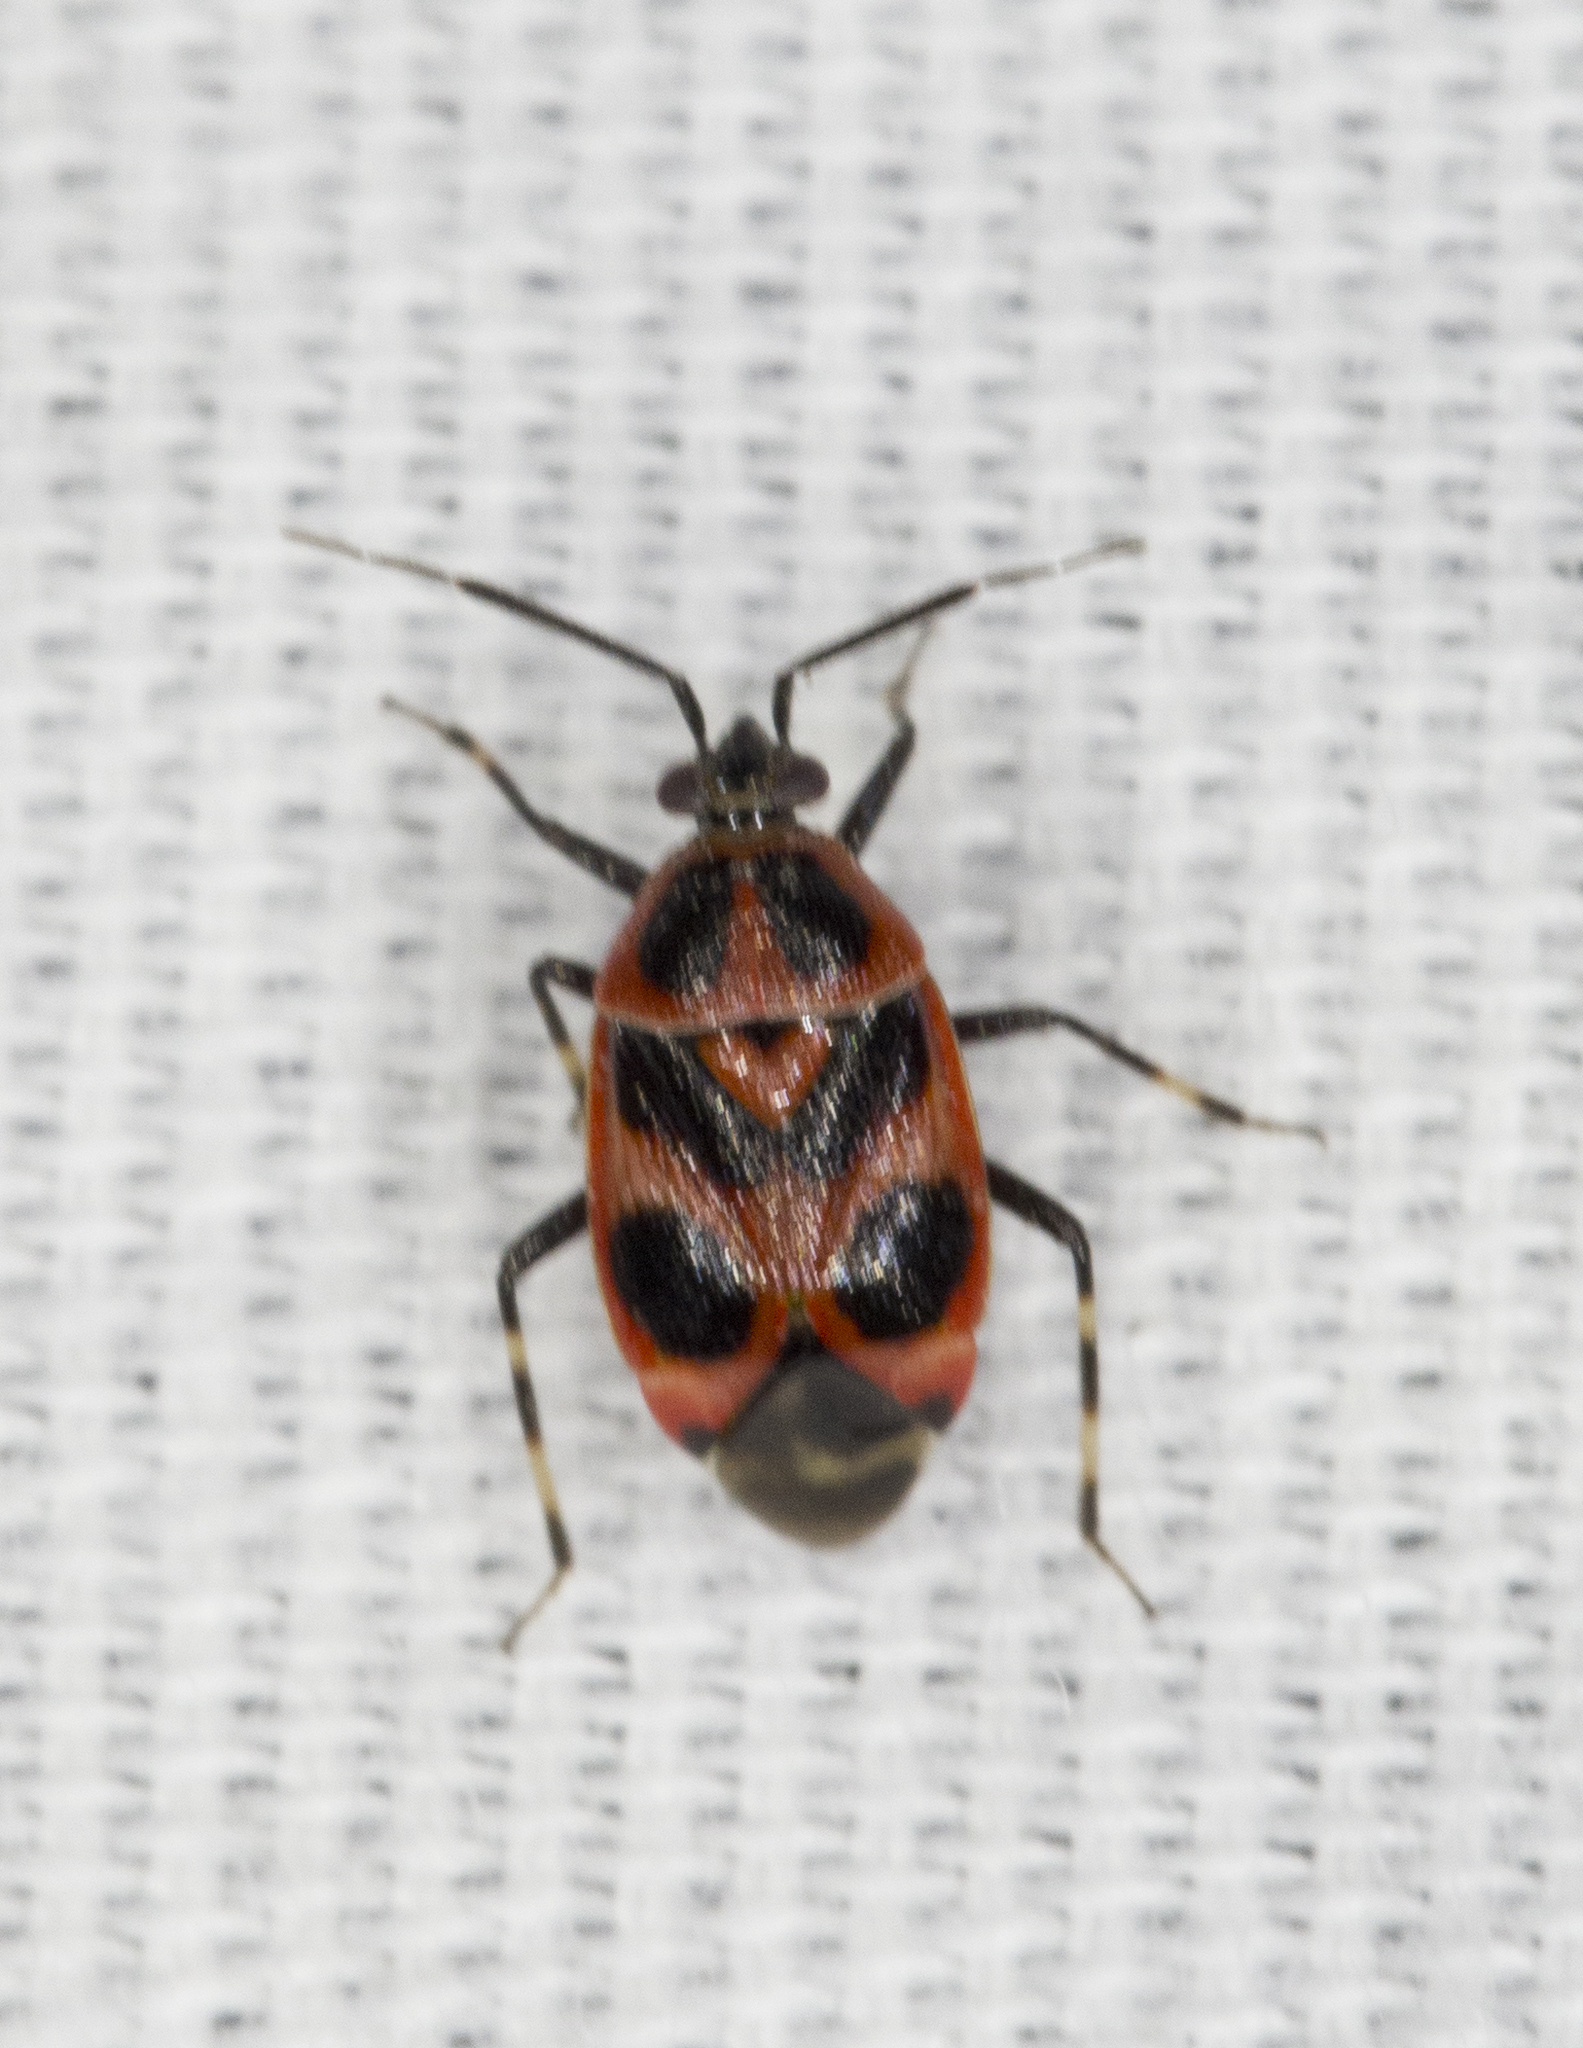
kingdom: Animalia
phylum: Arthropoda
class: Insecta
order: Hemiptera
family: Miridae
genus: Deraeocoris
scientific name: Deraeocoris histrio
